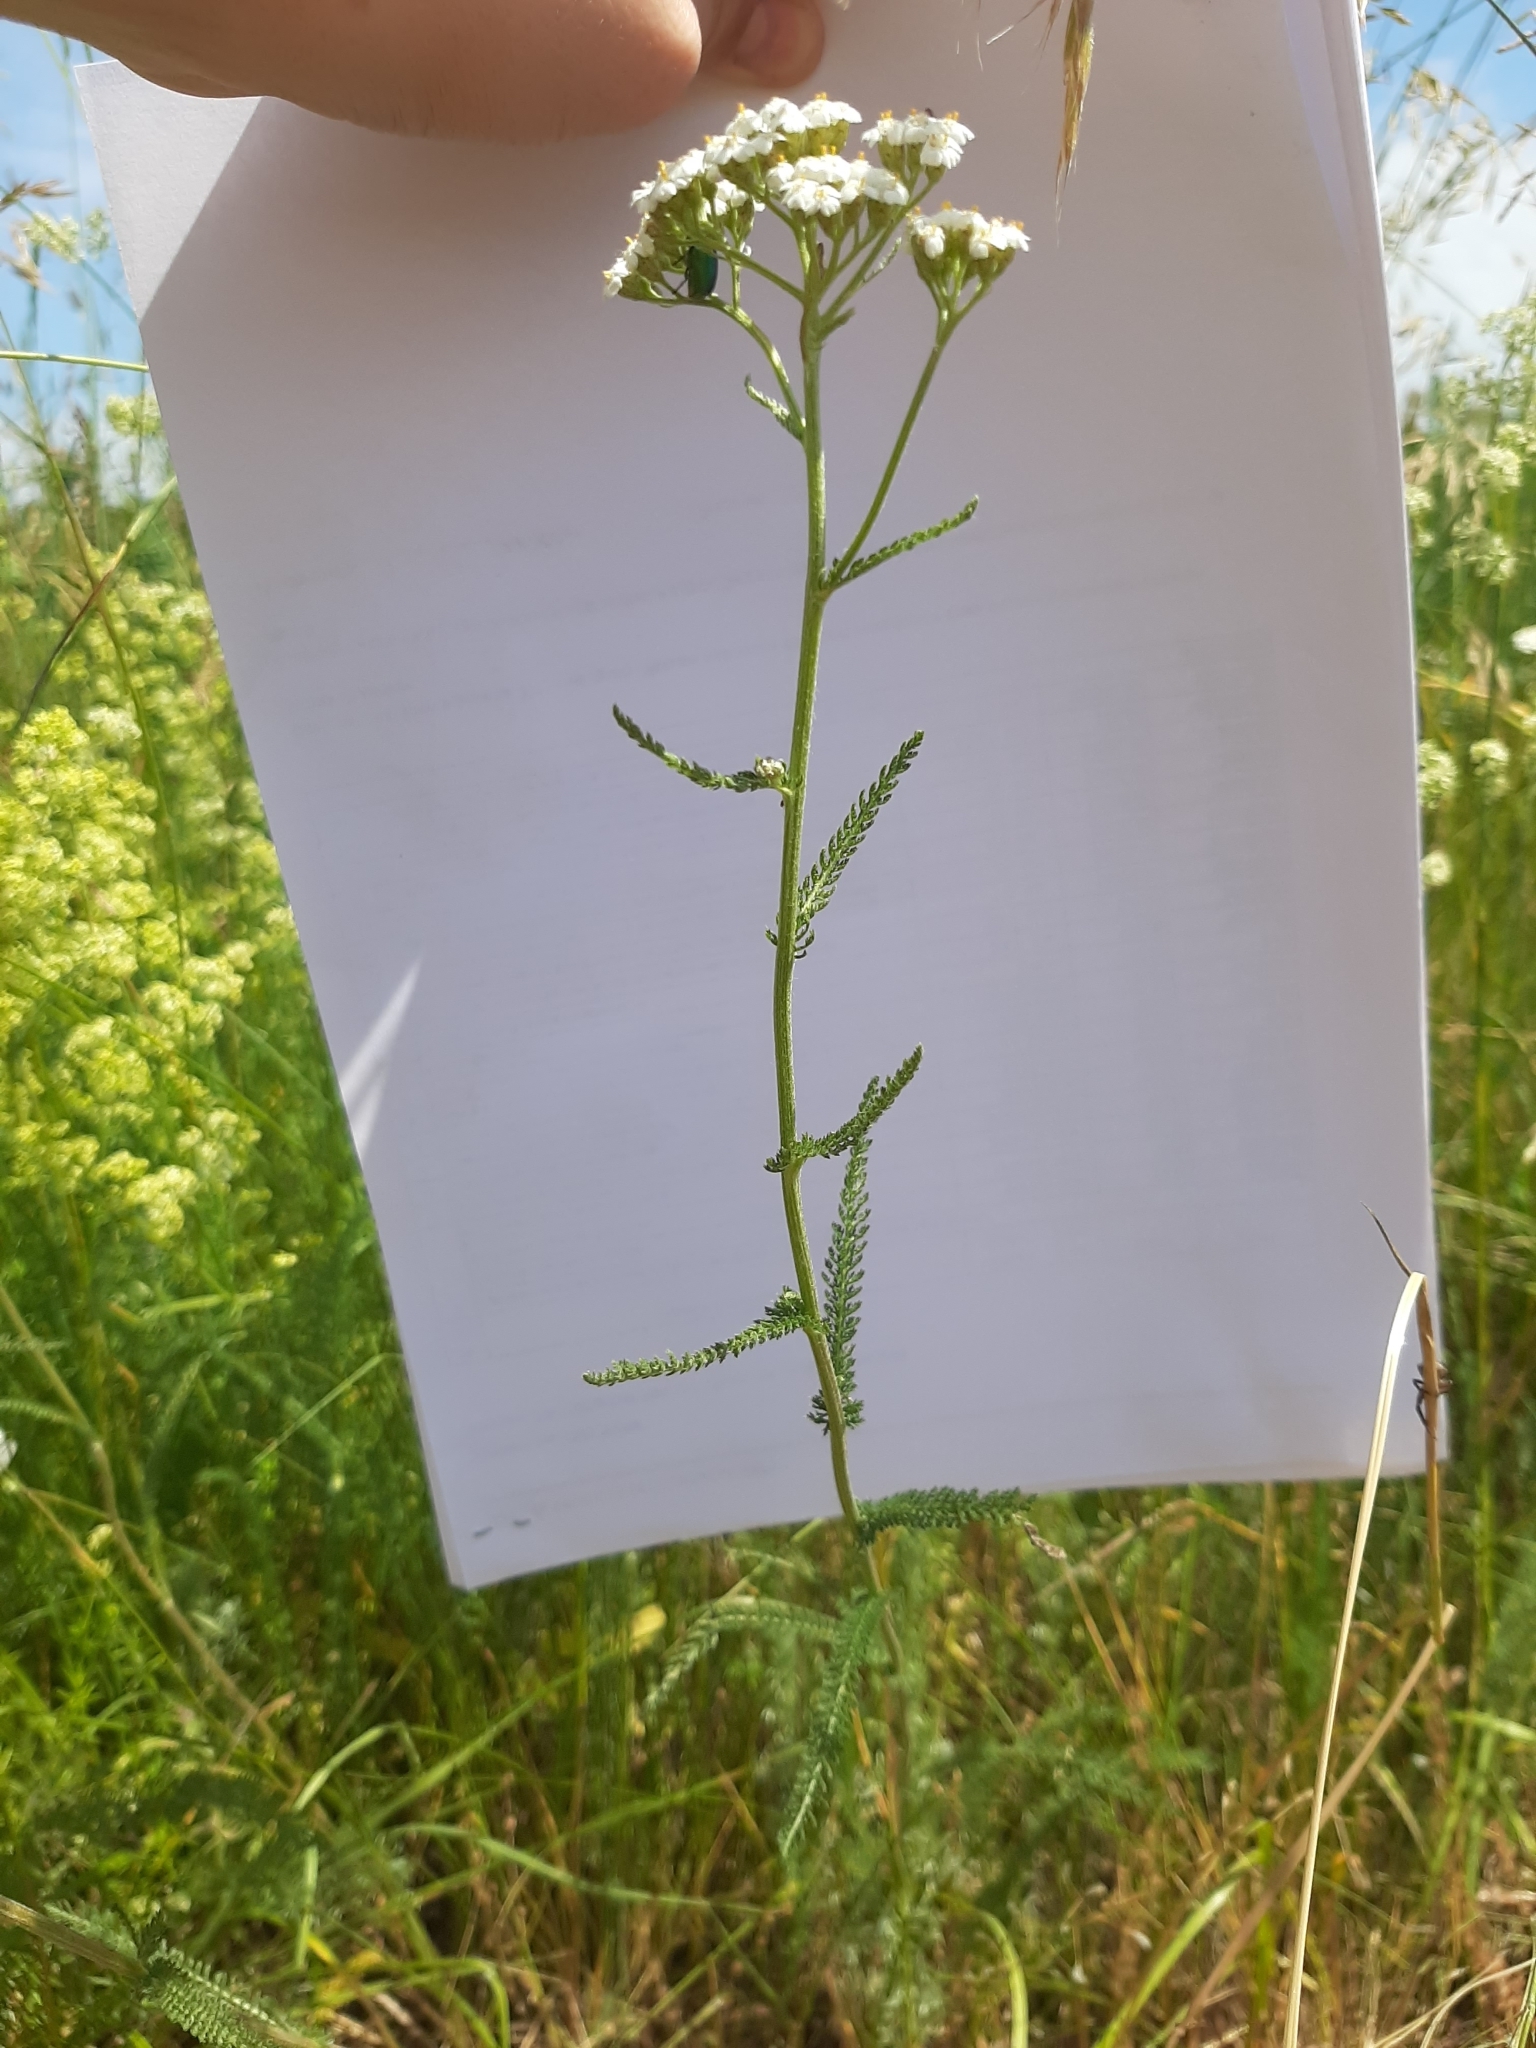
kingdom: Plantae
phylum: Tracheophyta
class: Magnoliopsida
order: Asterales
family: Asteraceae
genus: Achillea
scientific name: Achillea millefolium
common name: Yarrow
